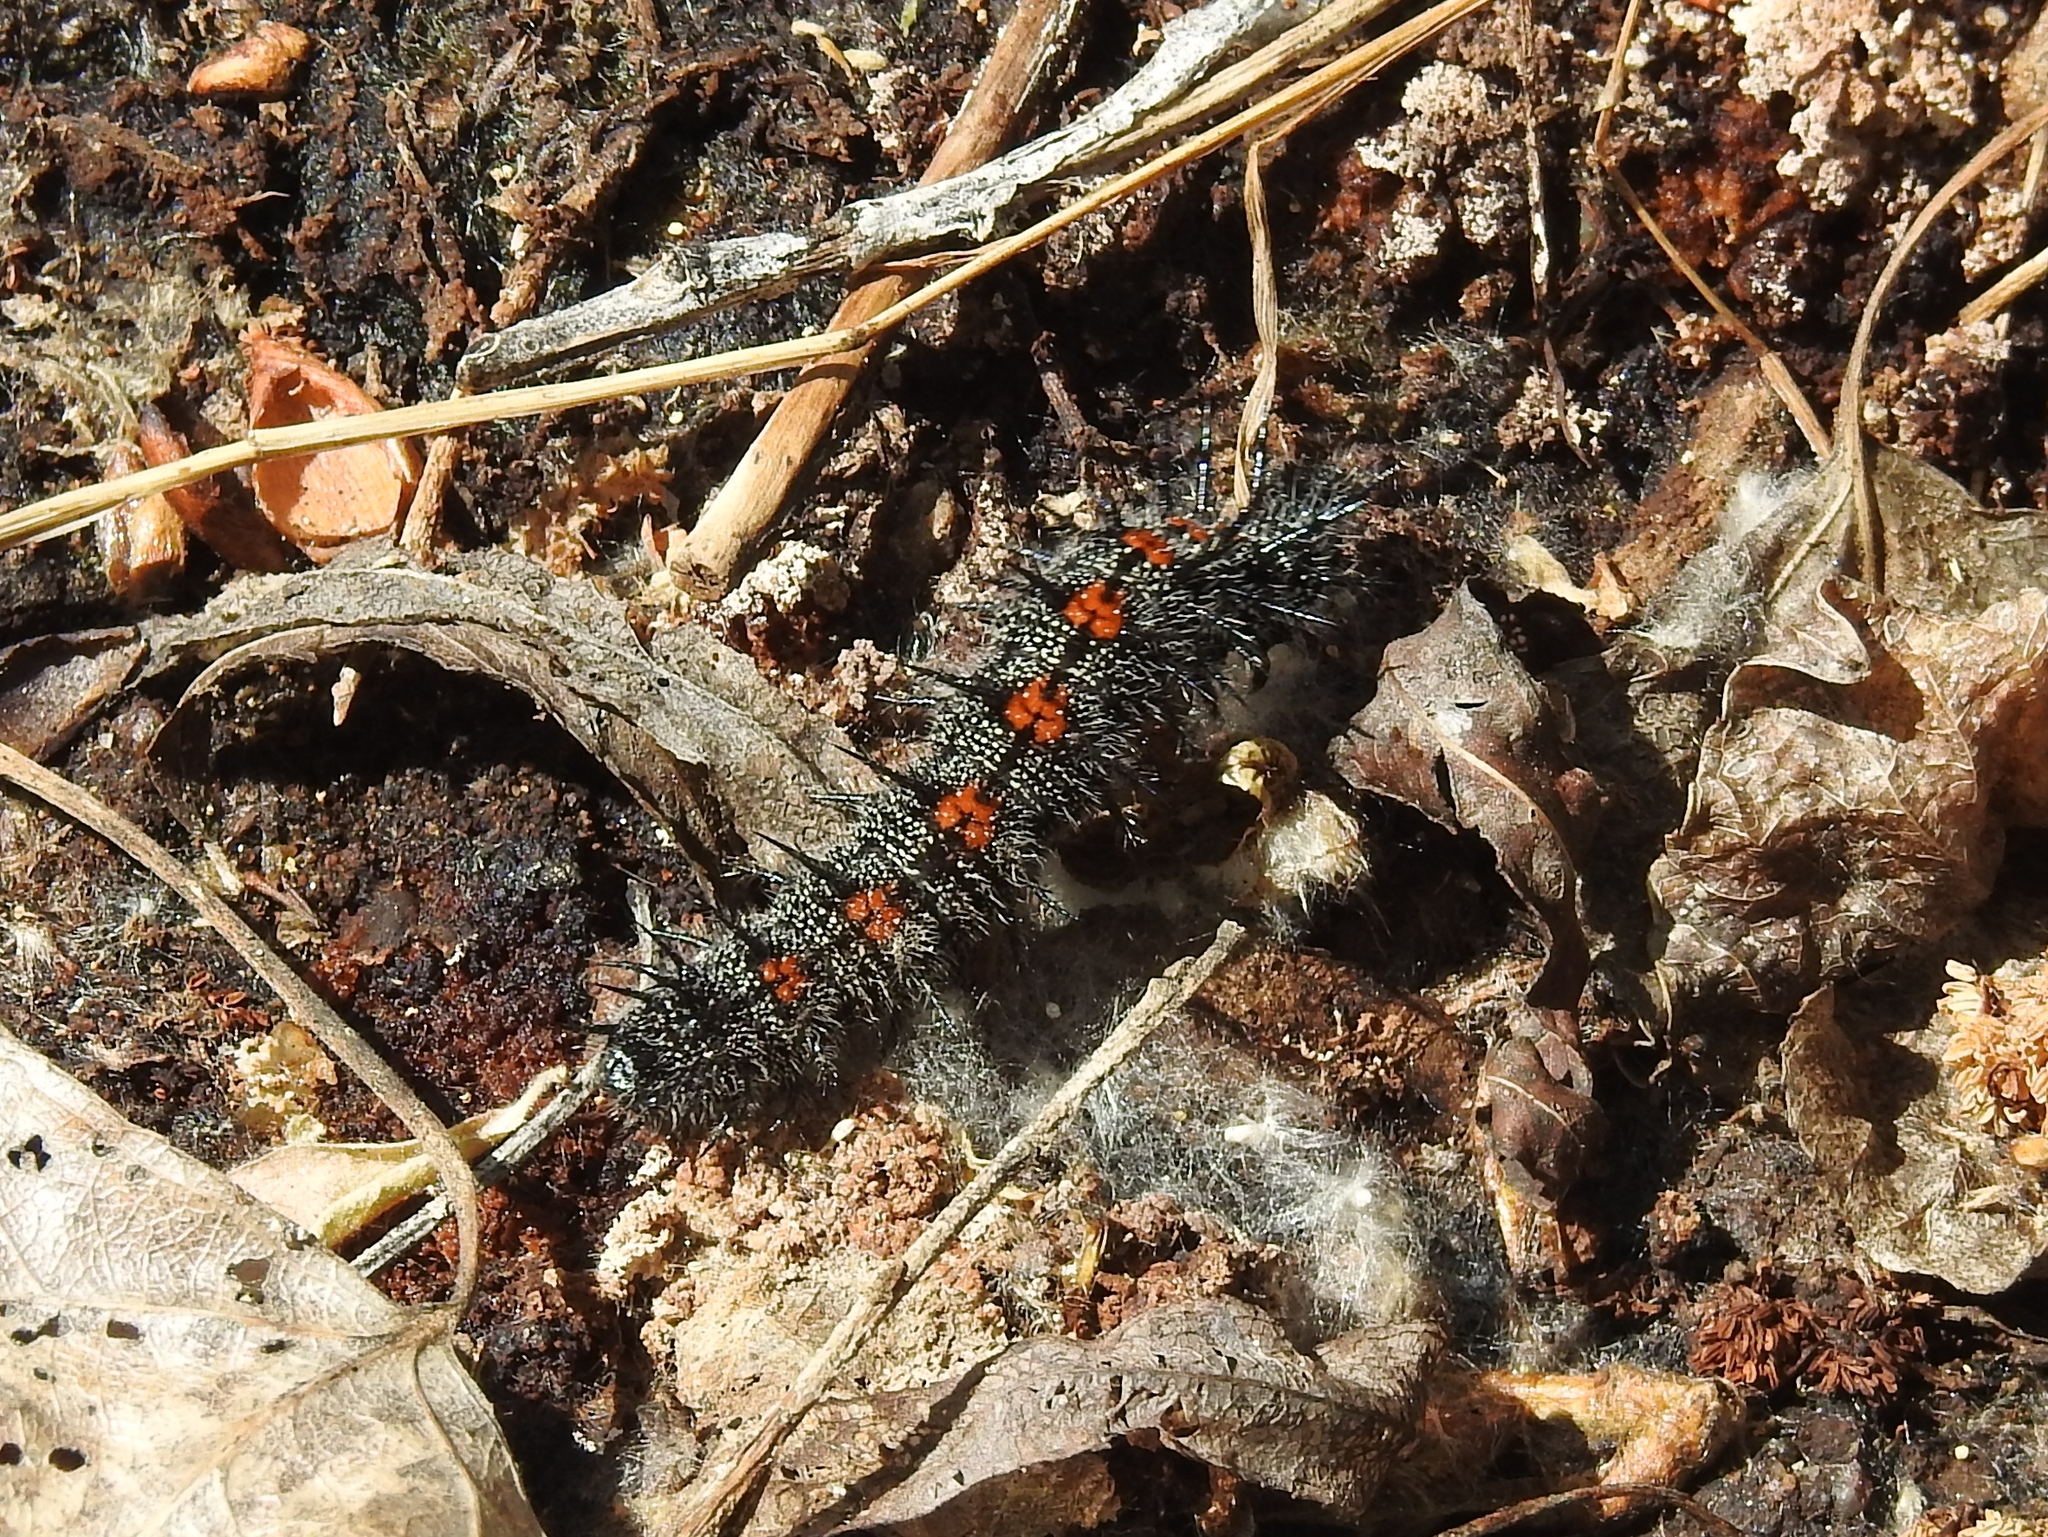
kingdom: Animalia
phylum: Arthropoda
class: Insecta
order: Lepidoptera
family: Nymphalidae
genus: Nymphalis
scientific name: Nymphalis antiopa
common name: Camberwell beauty
